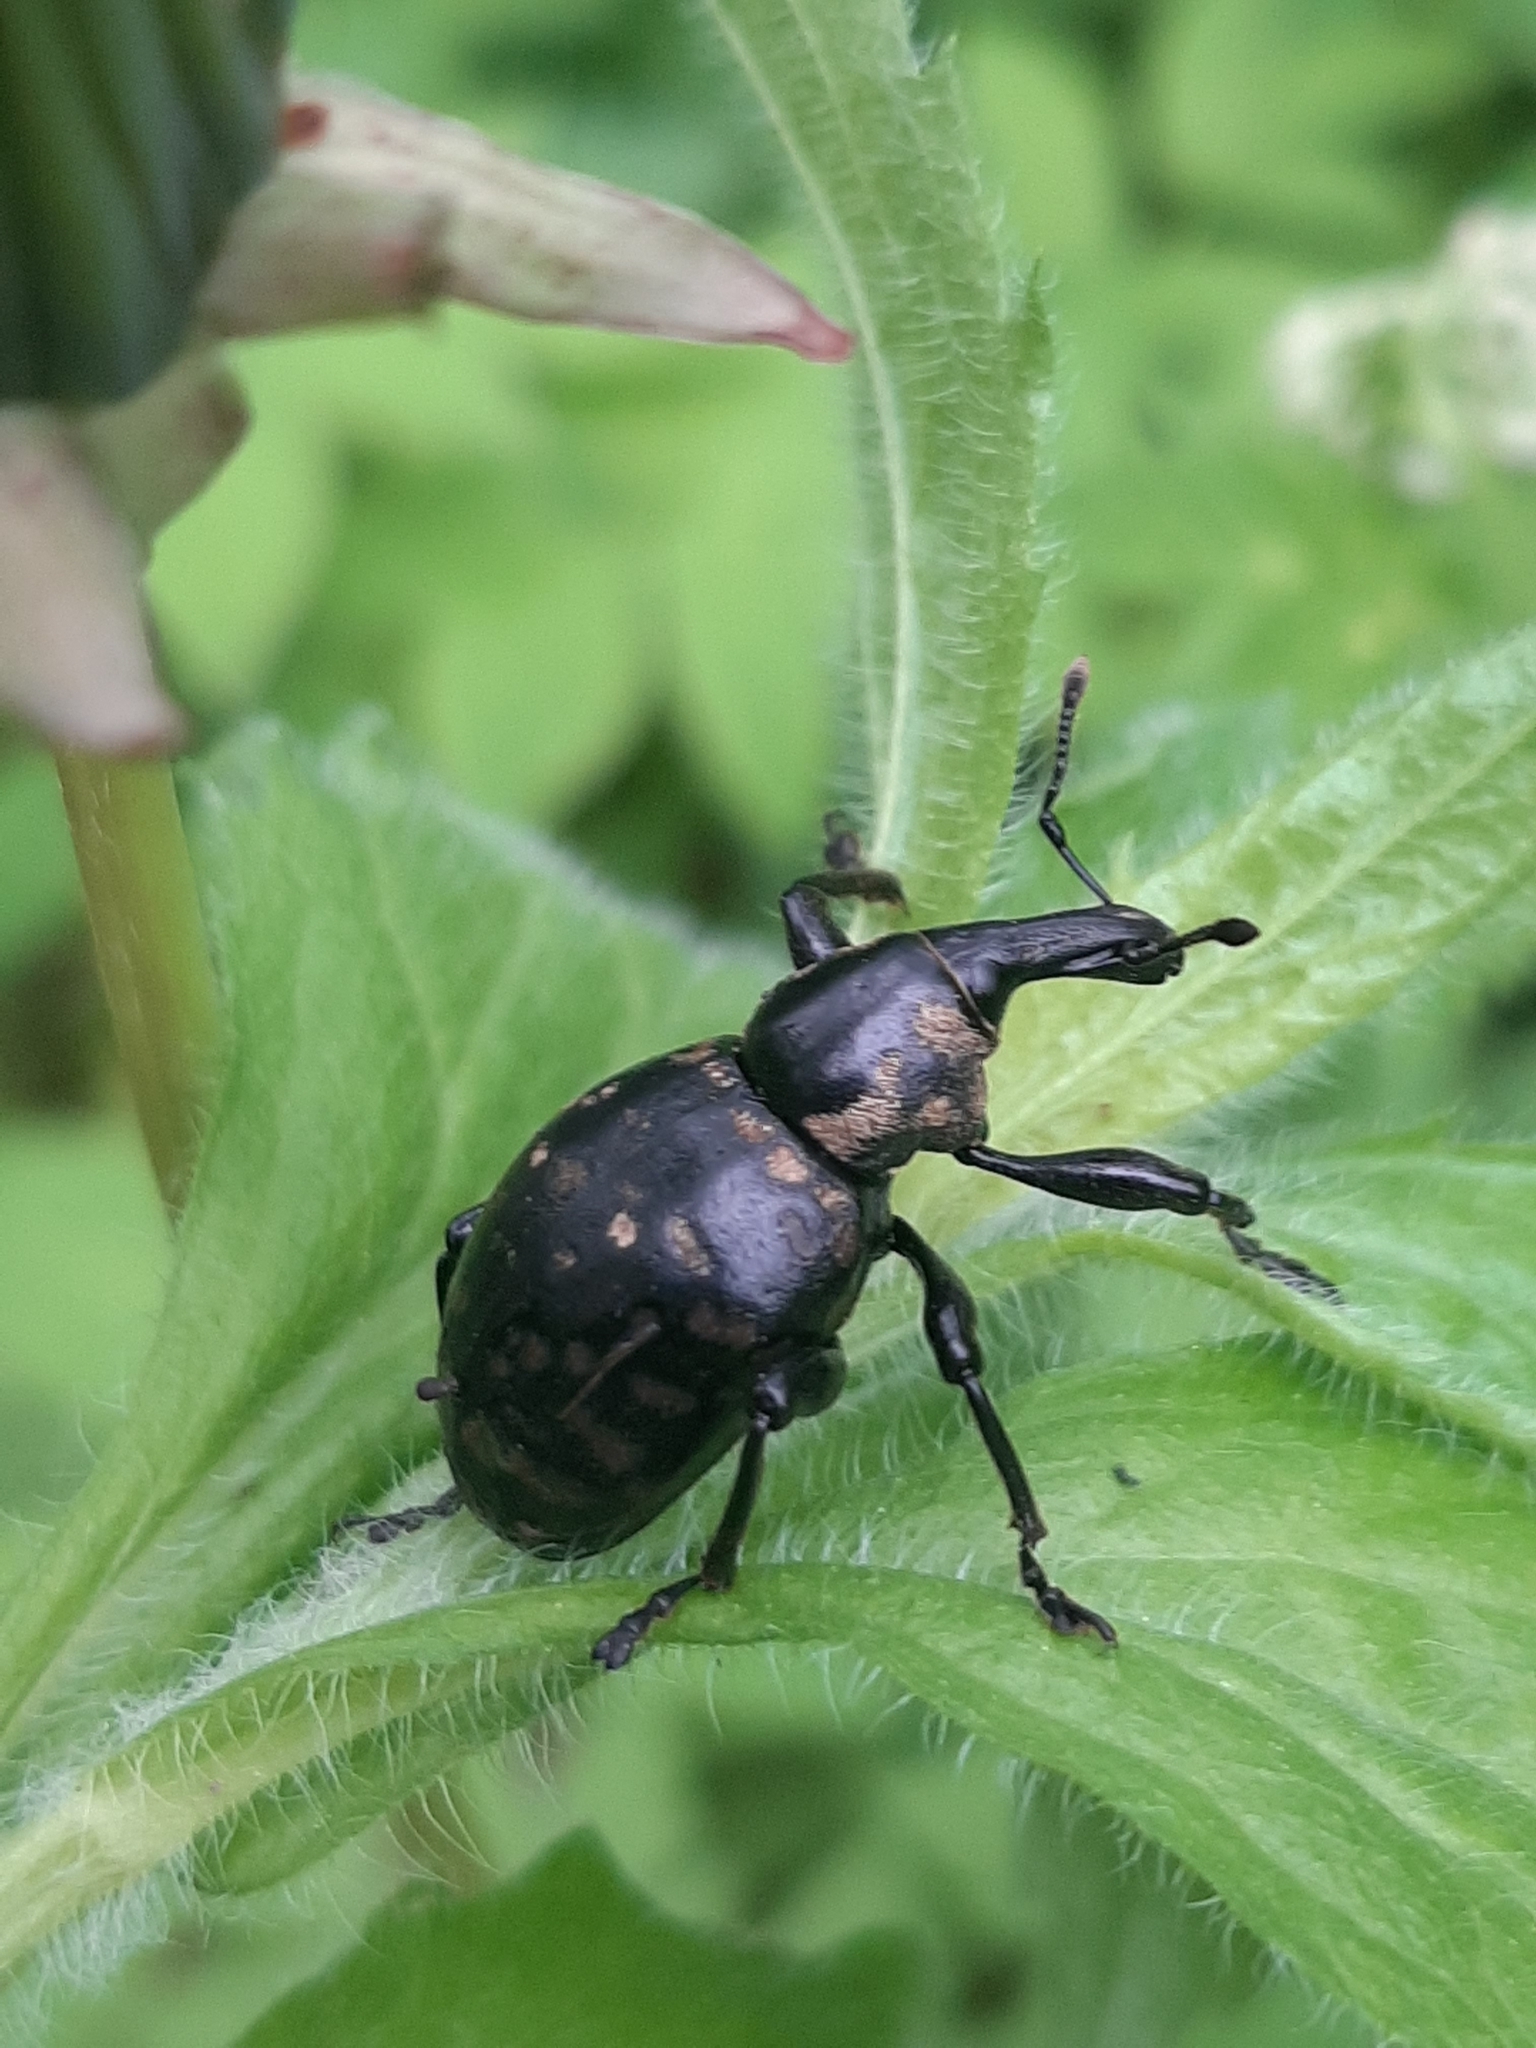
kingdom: Animalia
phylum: Arthropoda
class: Insecta
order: Coleoptera
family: Curculionidae
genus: Liparus
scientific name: Liparus glabrirostris
